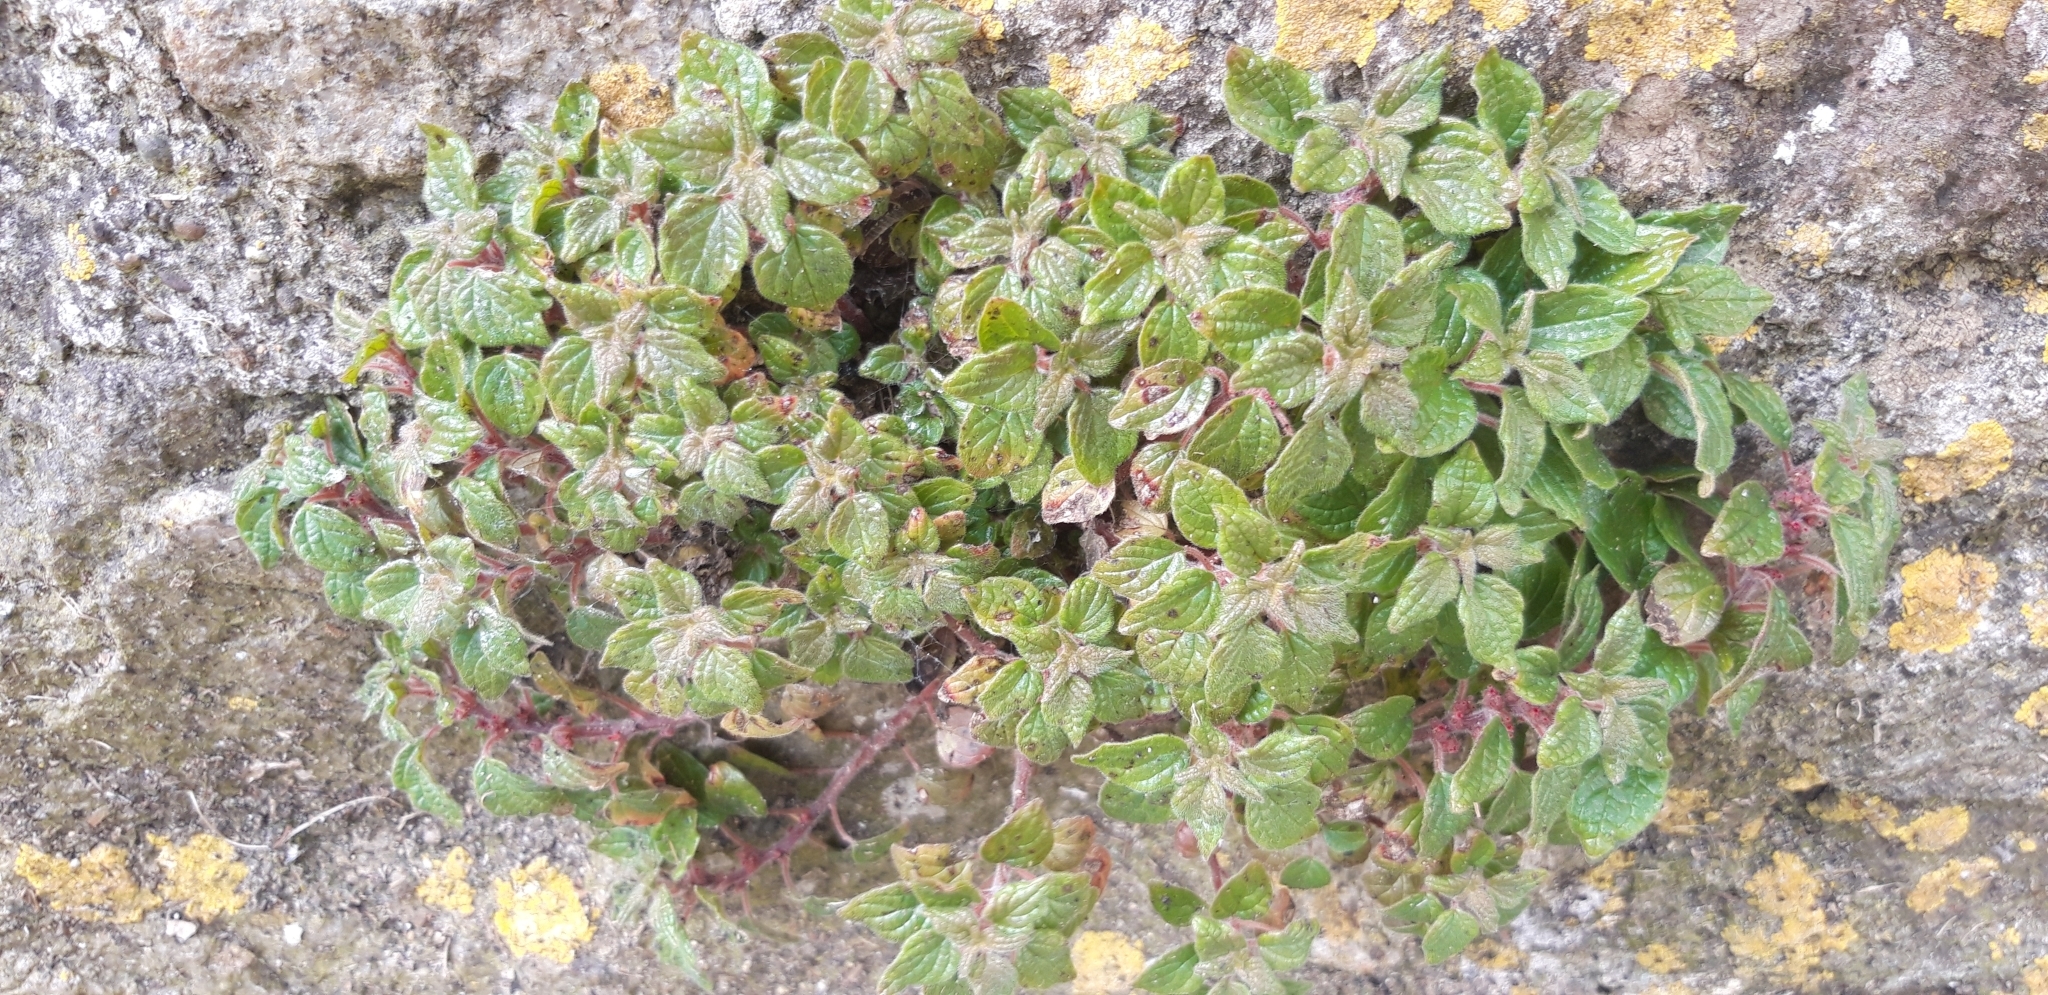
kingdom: Plantae
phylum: Tracheophyta
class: Magnoliopsida
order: Rosales
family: Urticaceae
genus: Parietaria
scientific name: Parietaria judaica
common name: Pellitory-of-the-wall
